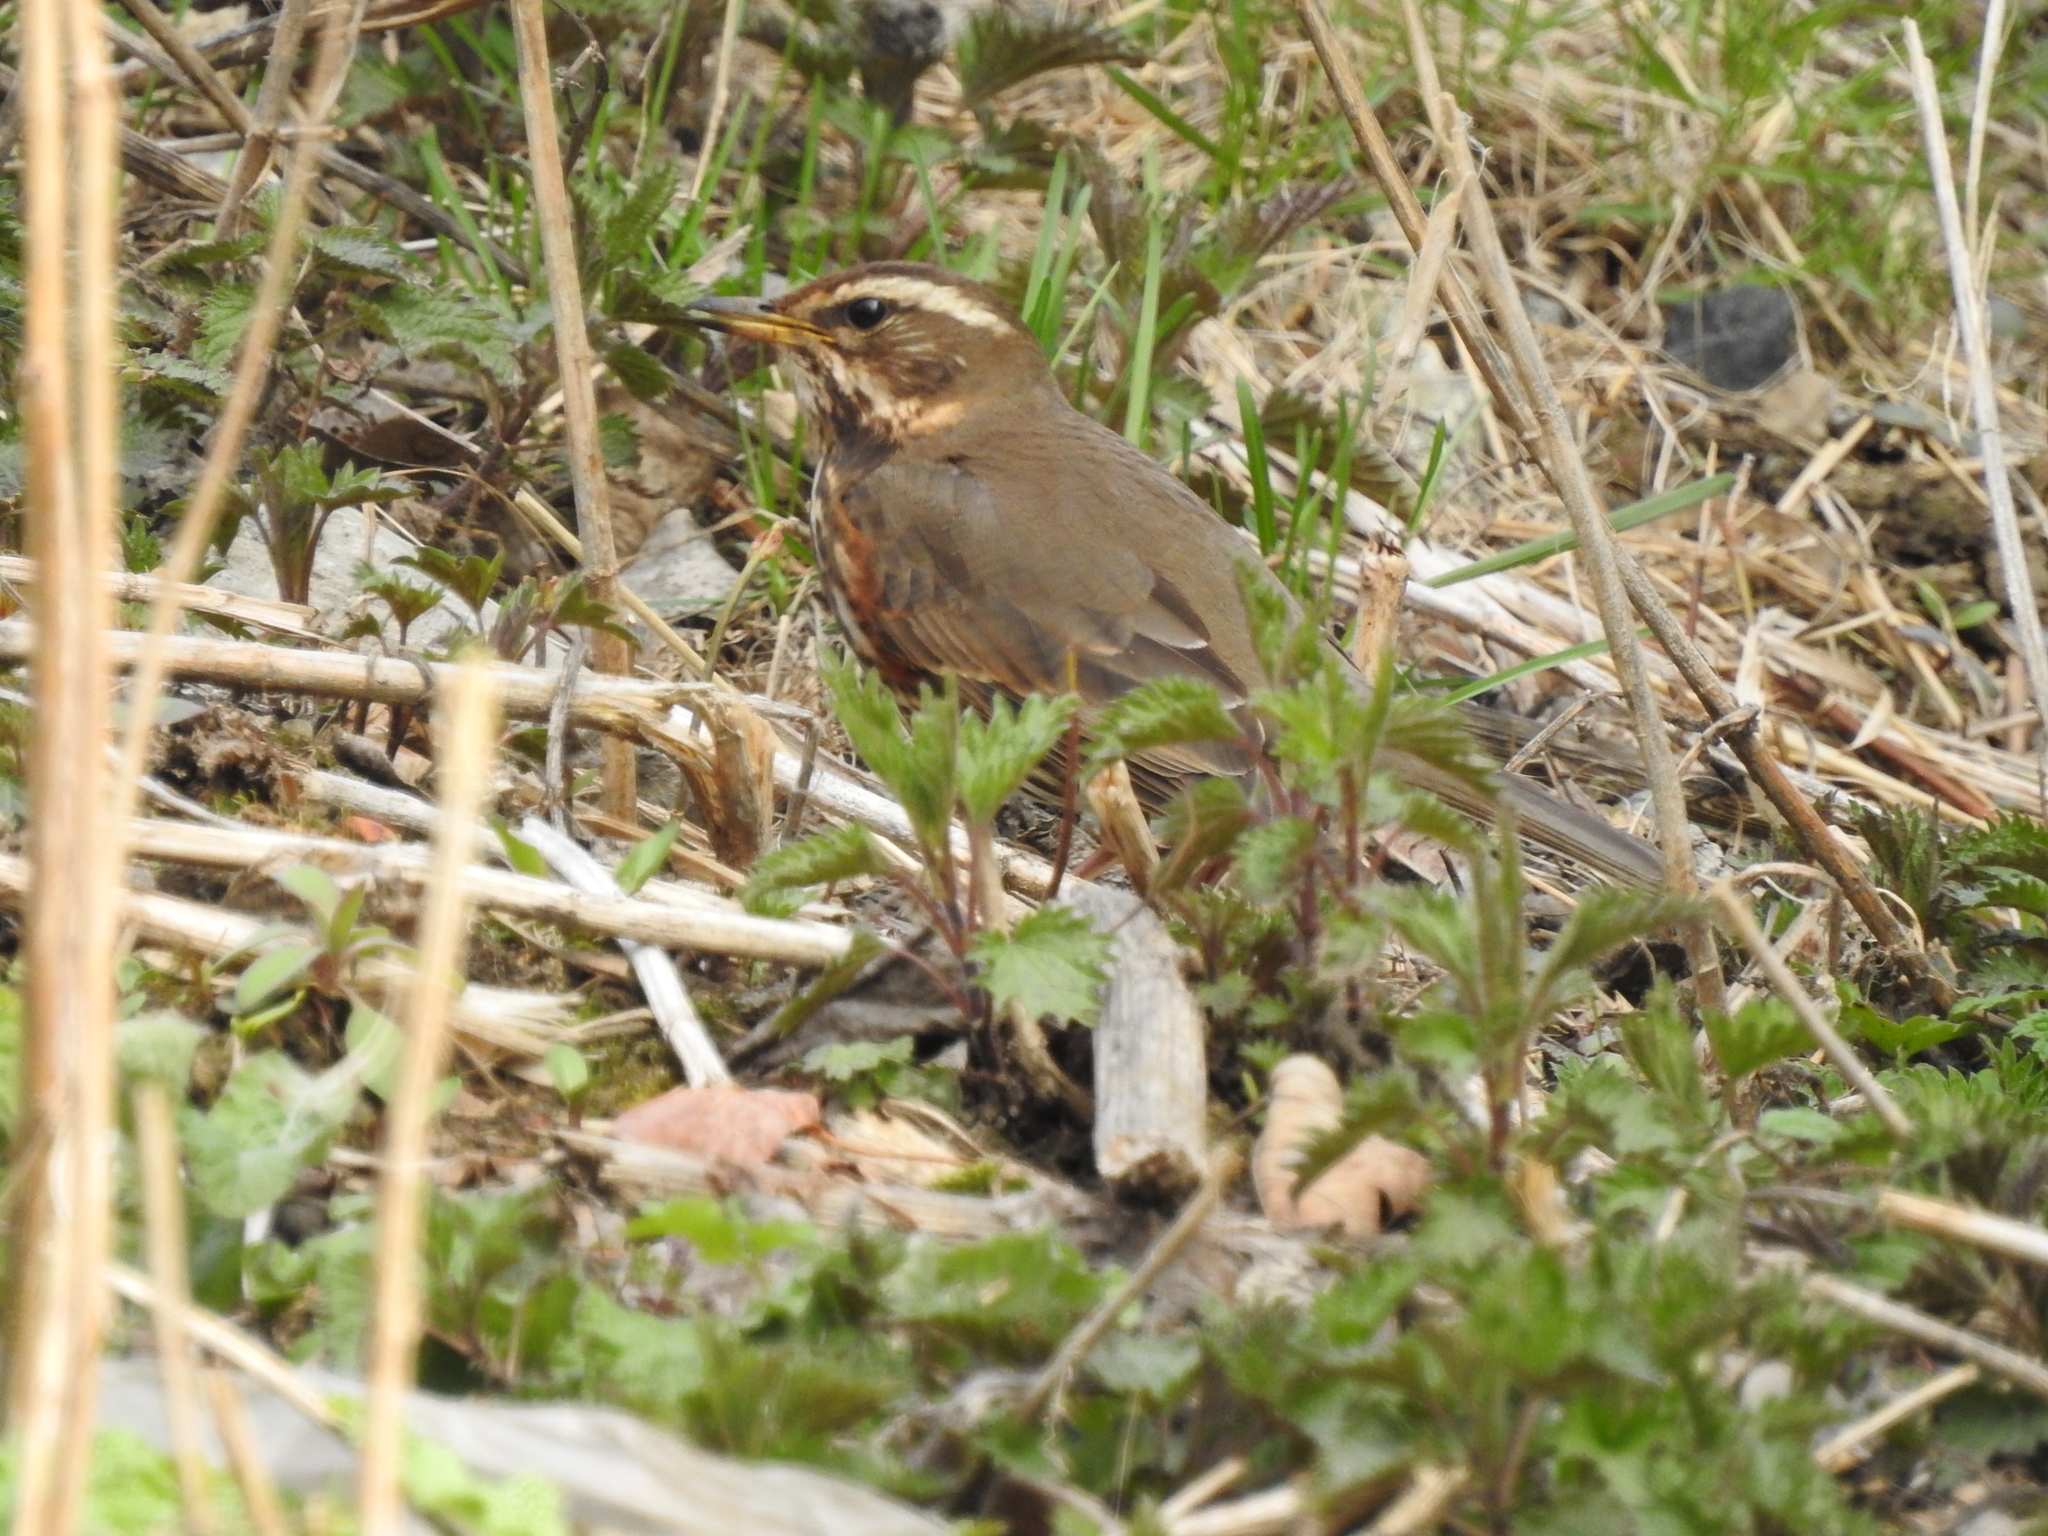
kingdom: Animalia
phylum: Chordata
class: Aves
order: Passeriformes
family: Turdidae
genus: Turdus
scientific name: Turdus iliacus
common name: Redwing
